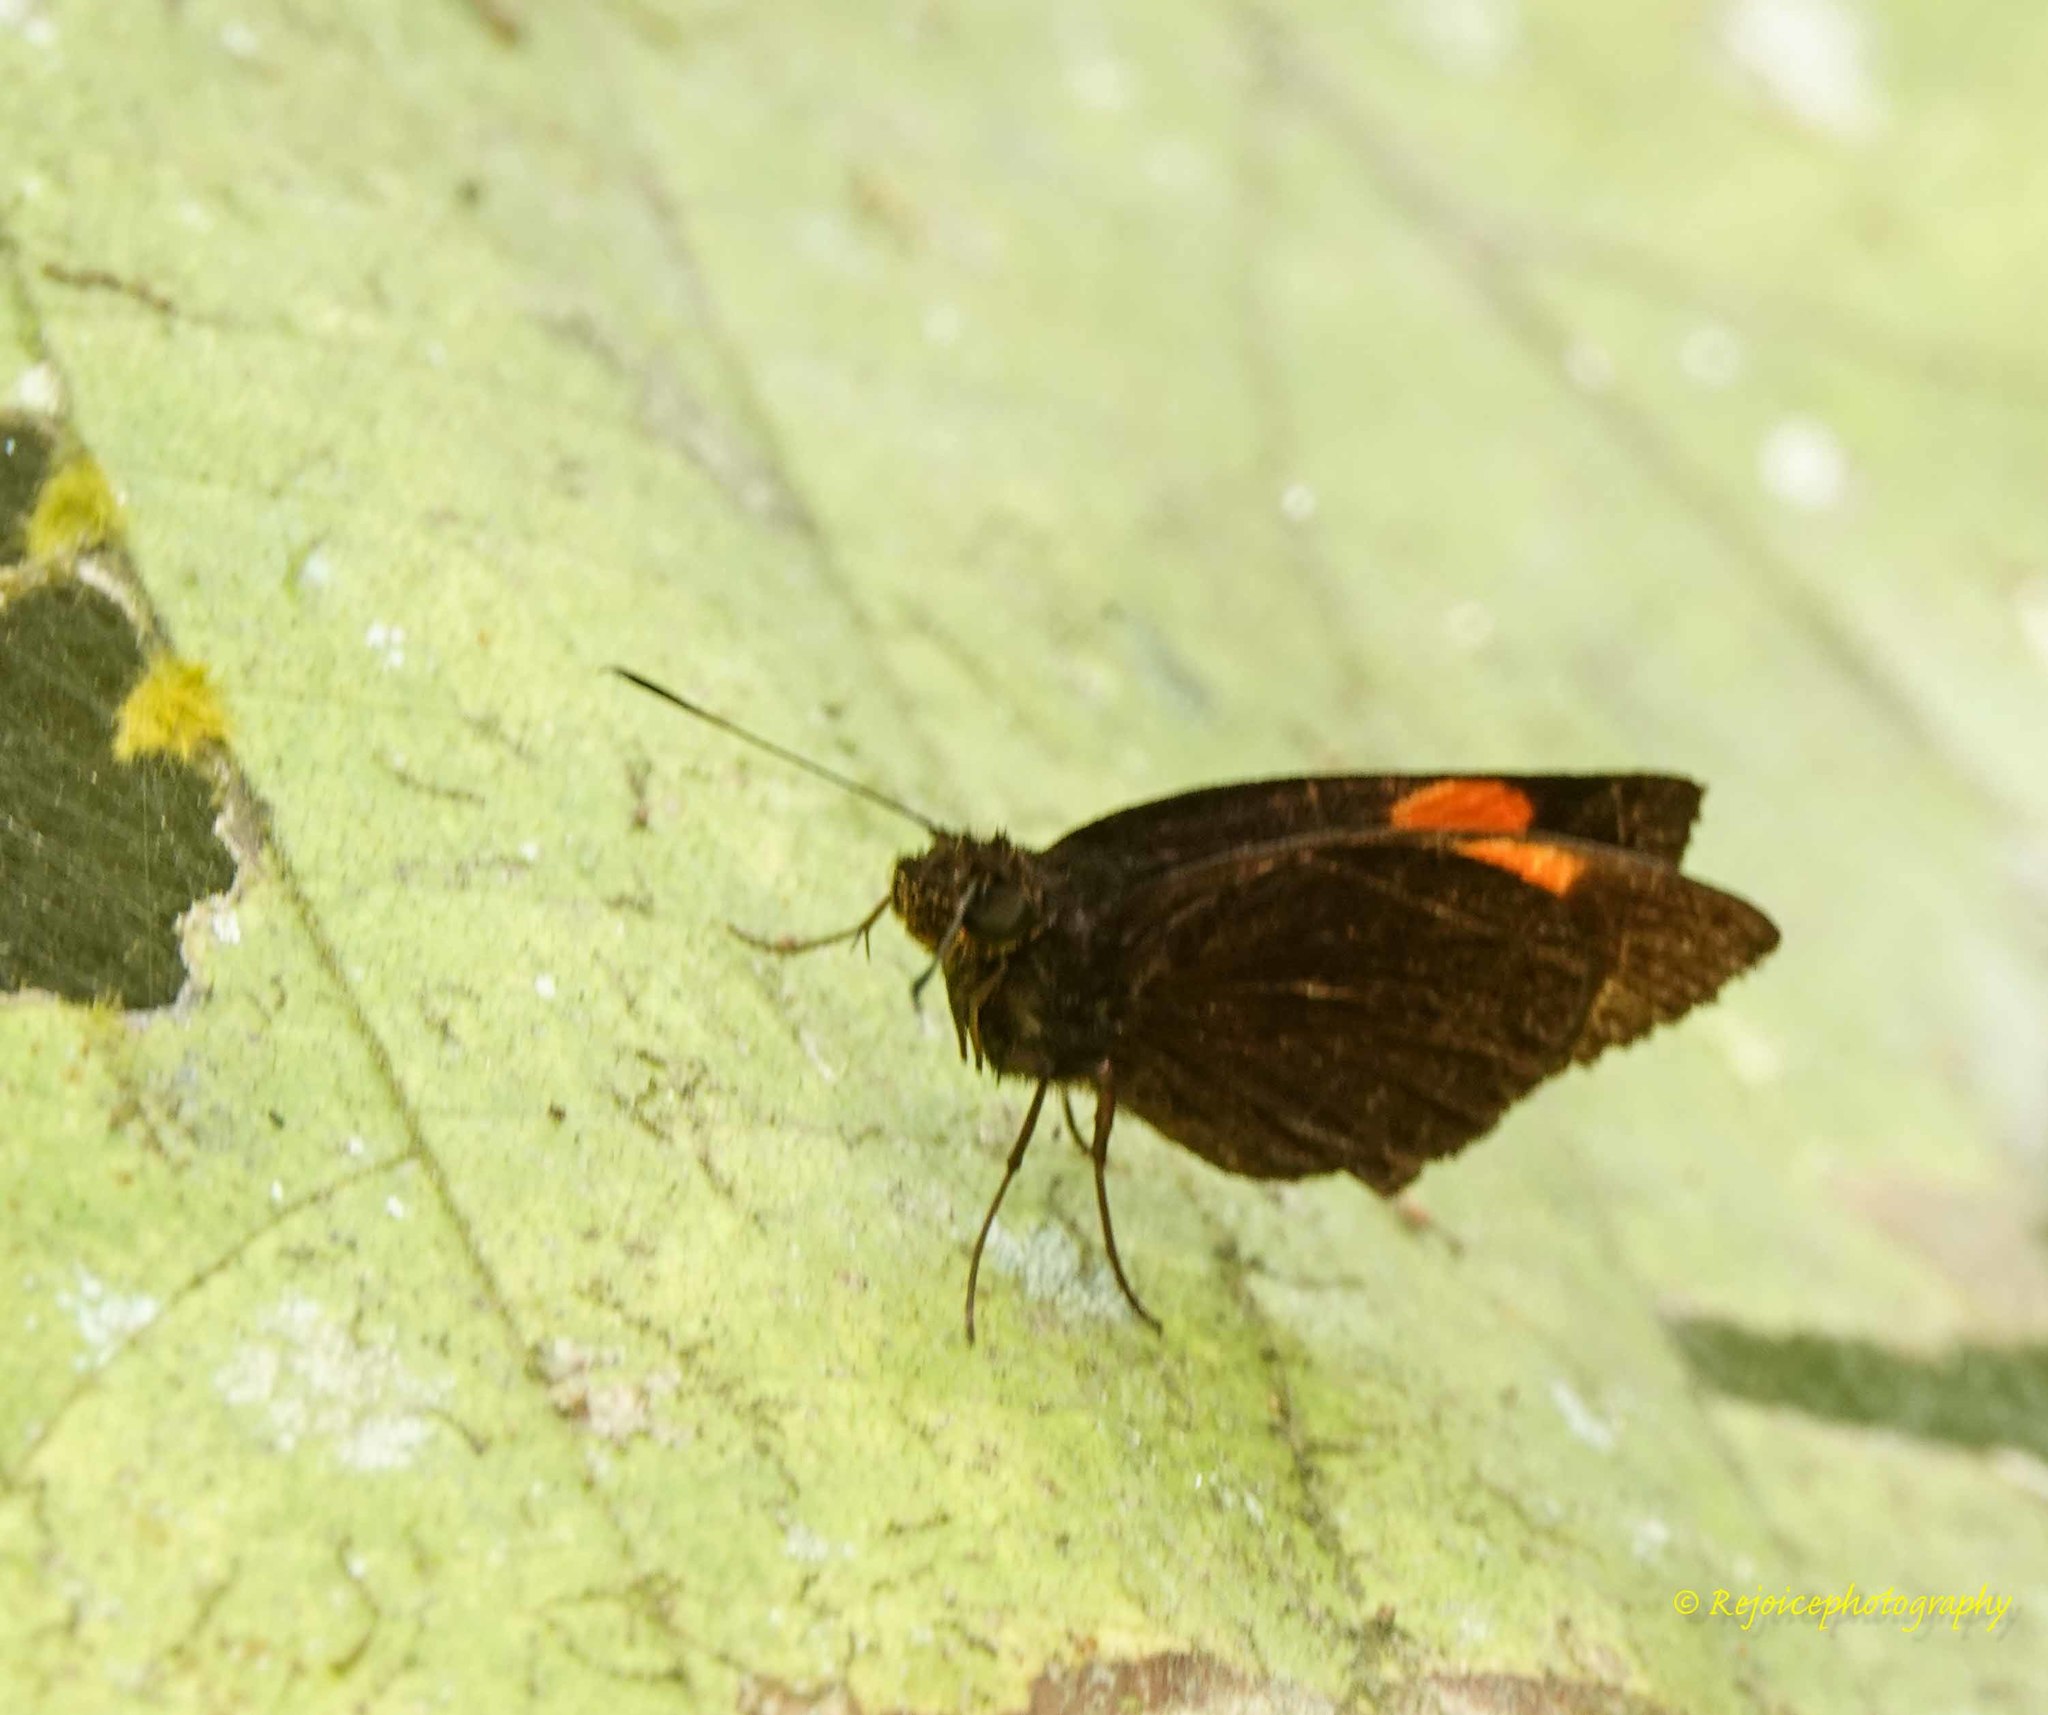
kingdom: Animalia
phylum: Arthropoda
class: Insecta
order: Lepidoptera
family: Hesperiidae
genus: Koruthaialos
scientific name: Koruthaialos sindu
